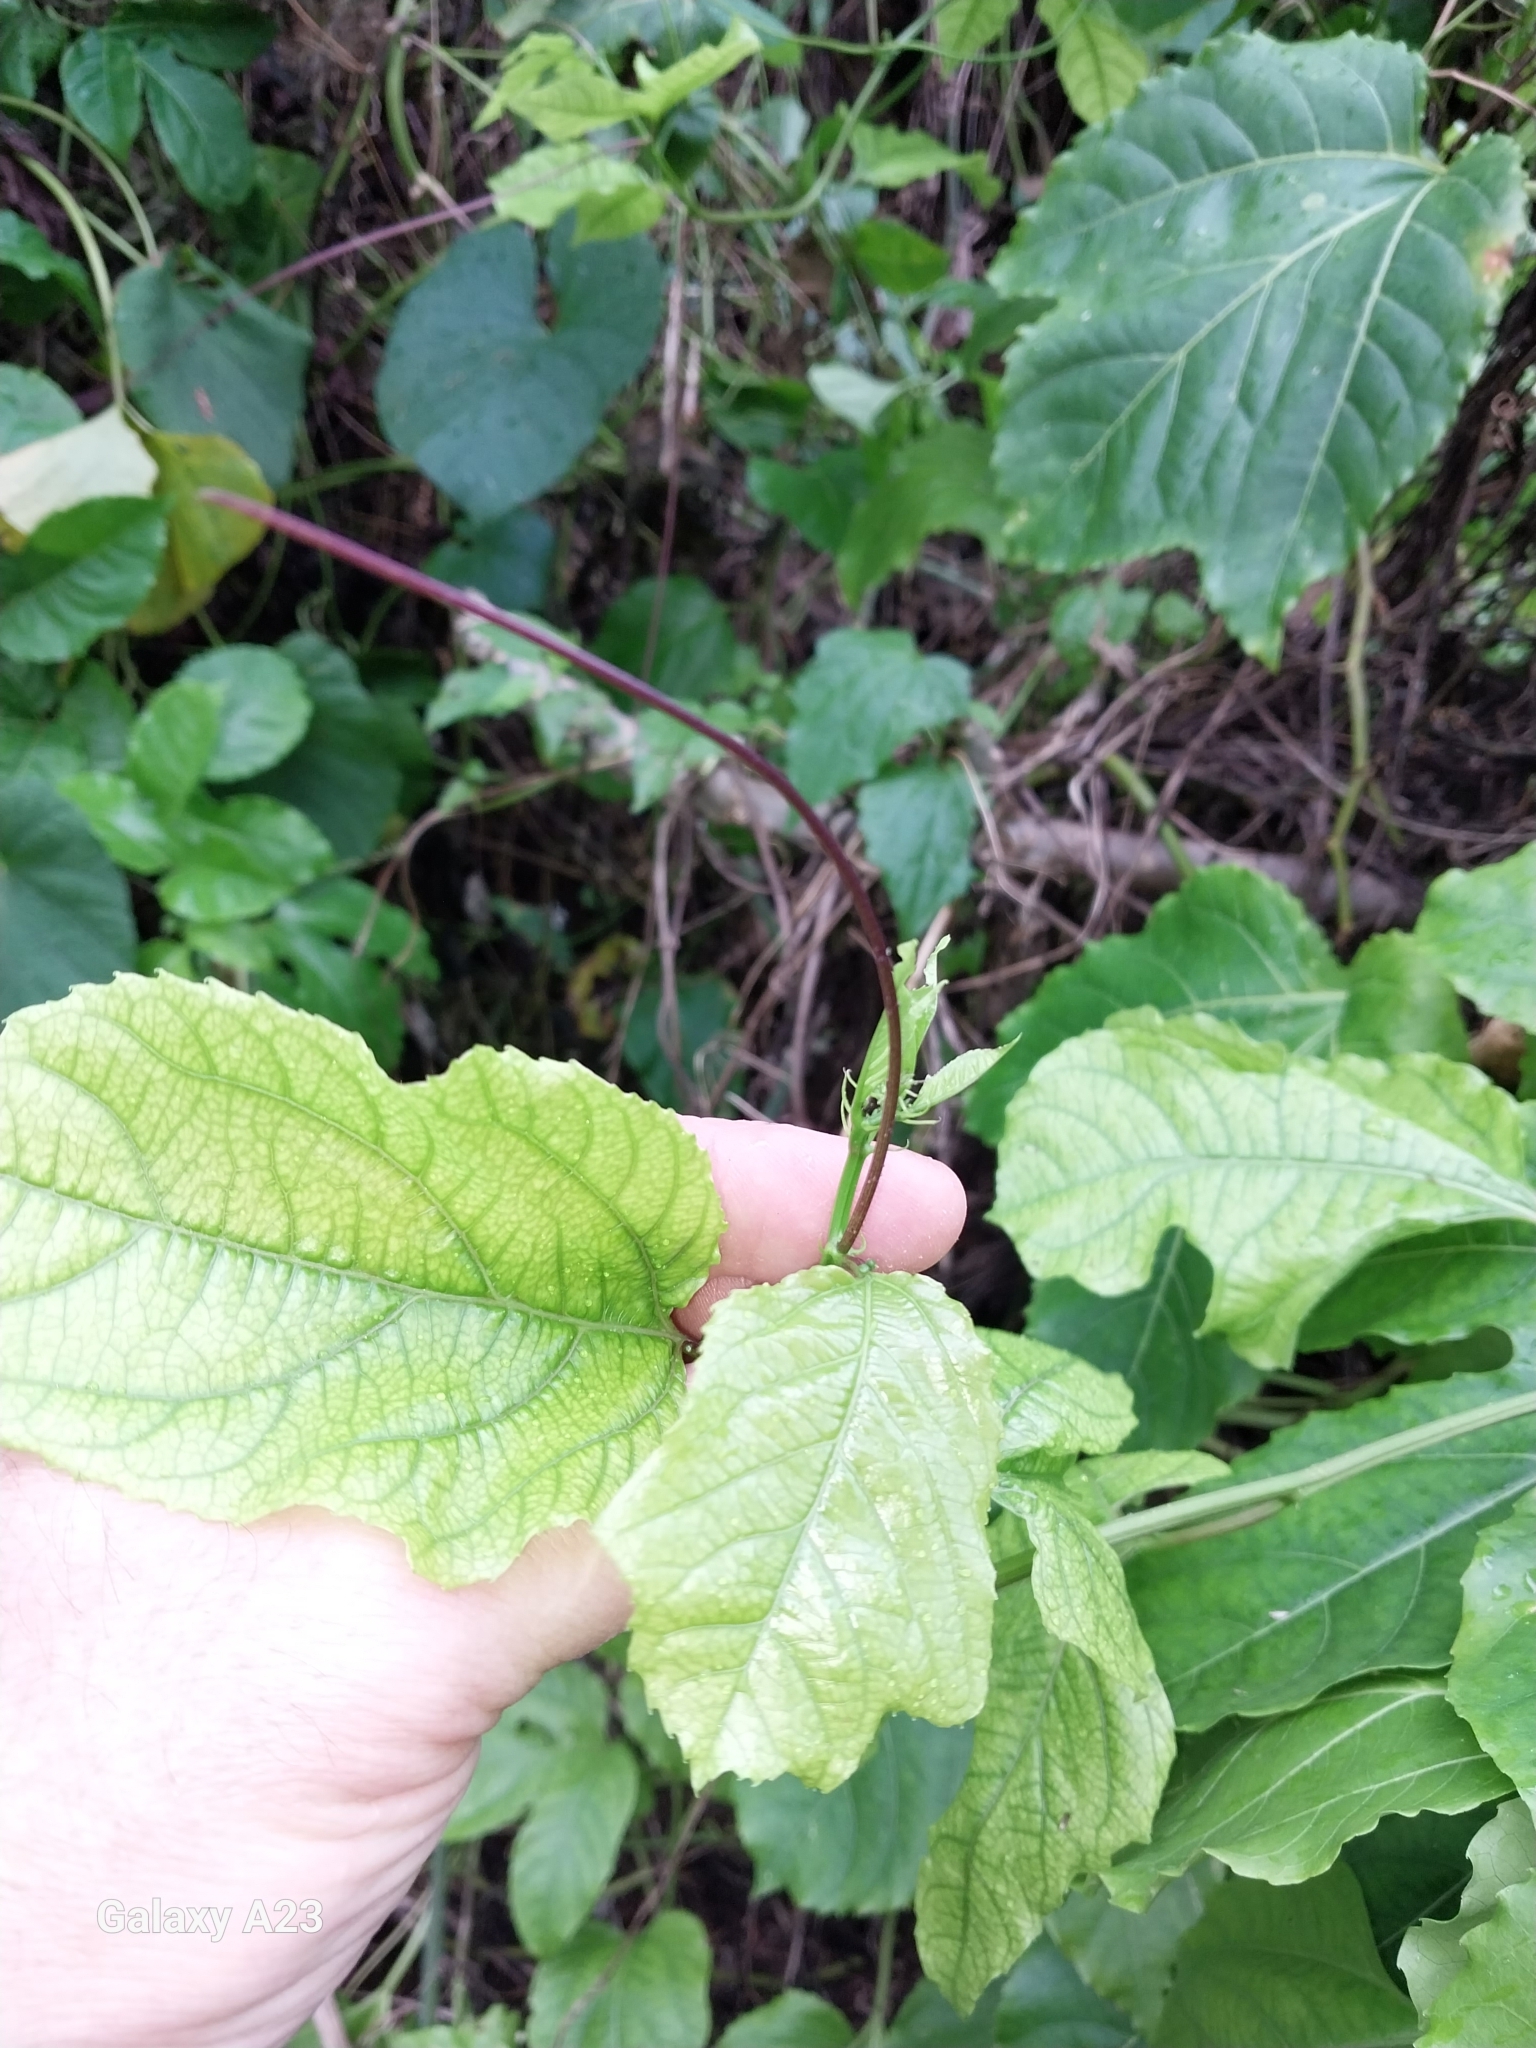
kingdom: Plantae
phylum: Tracheophyta
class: Magnoliopsida
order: Malpighiales
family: Passifloraceae
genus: Passiflora
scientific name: Passiflora edulis
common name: Purple granadilla
